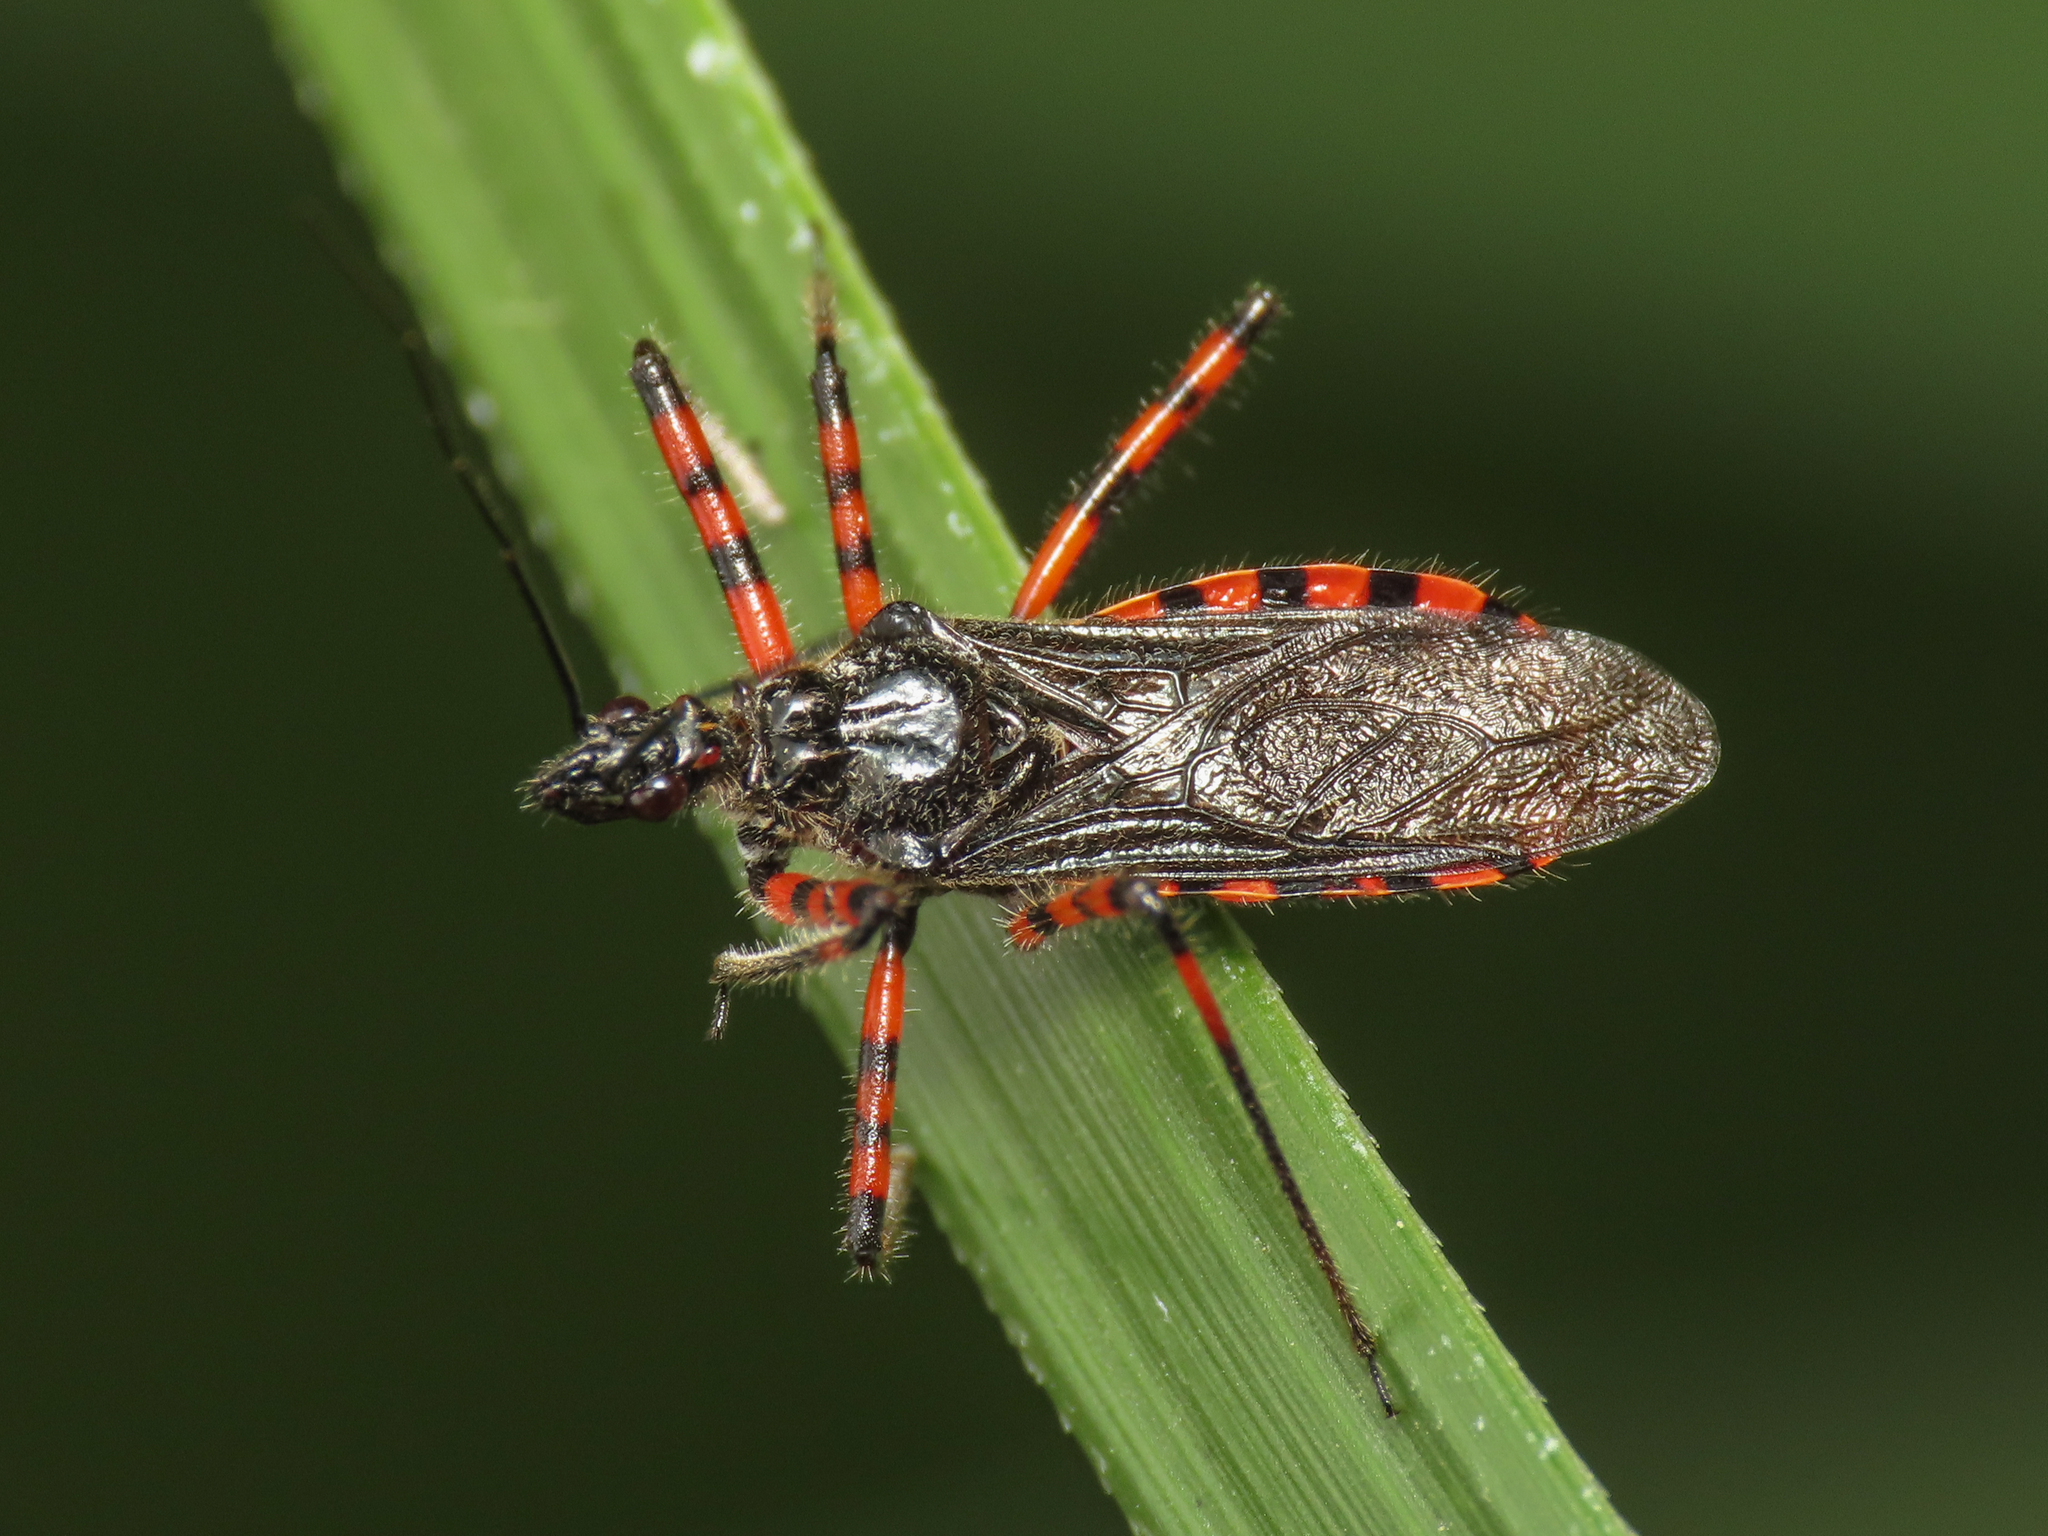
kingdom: Animalia
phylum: Arthropoda
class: Insecta
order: Hemiptera
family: Reduviidae
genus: Sphedanolestes
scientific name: Sphedanolestes cingulatus
